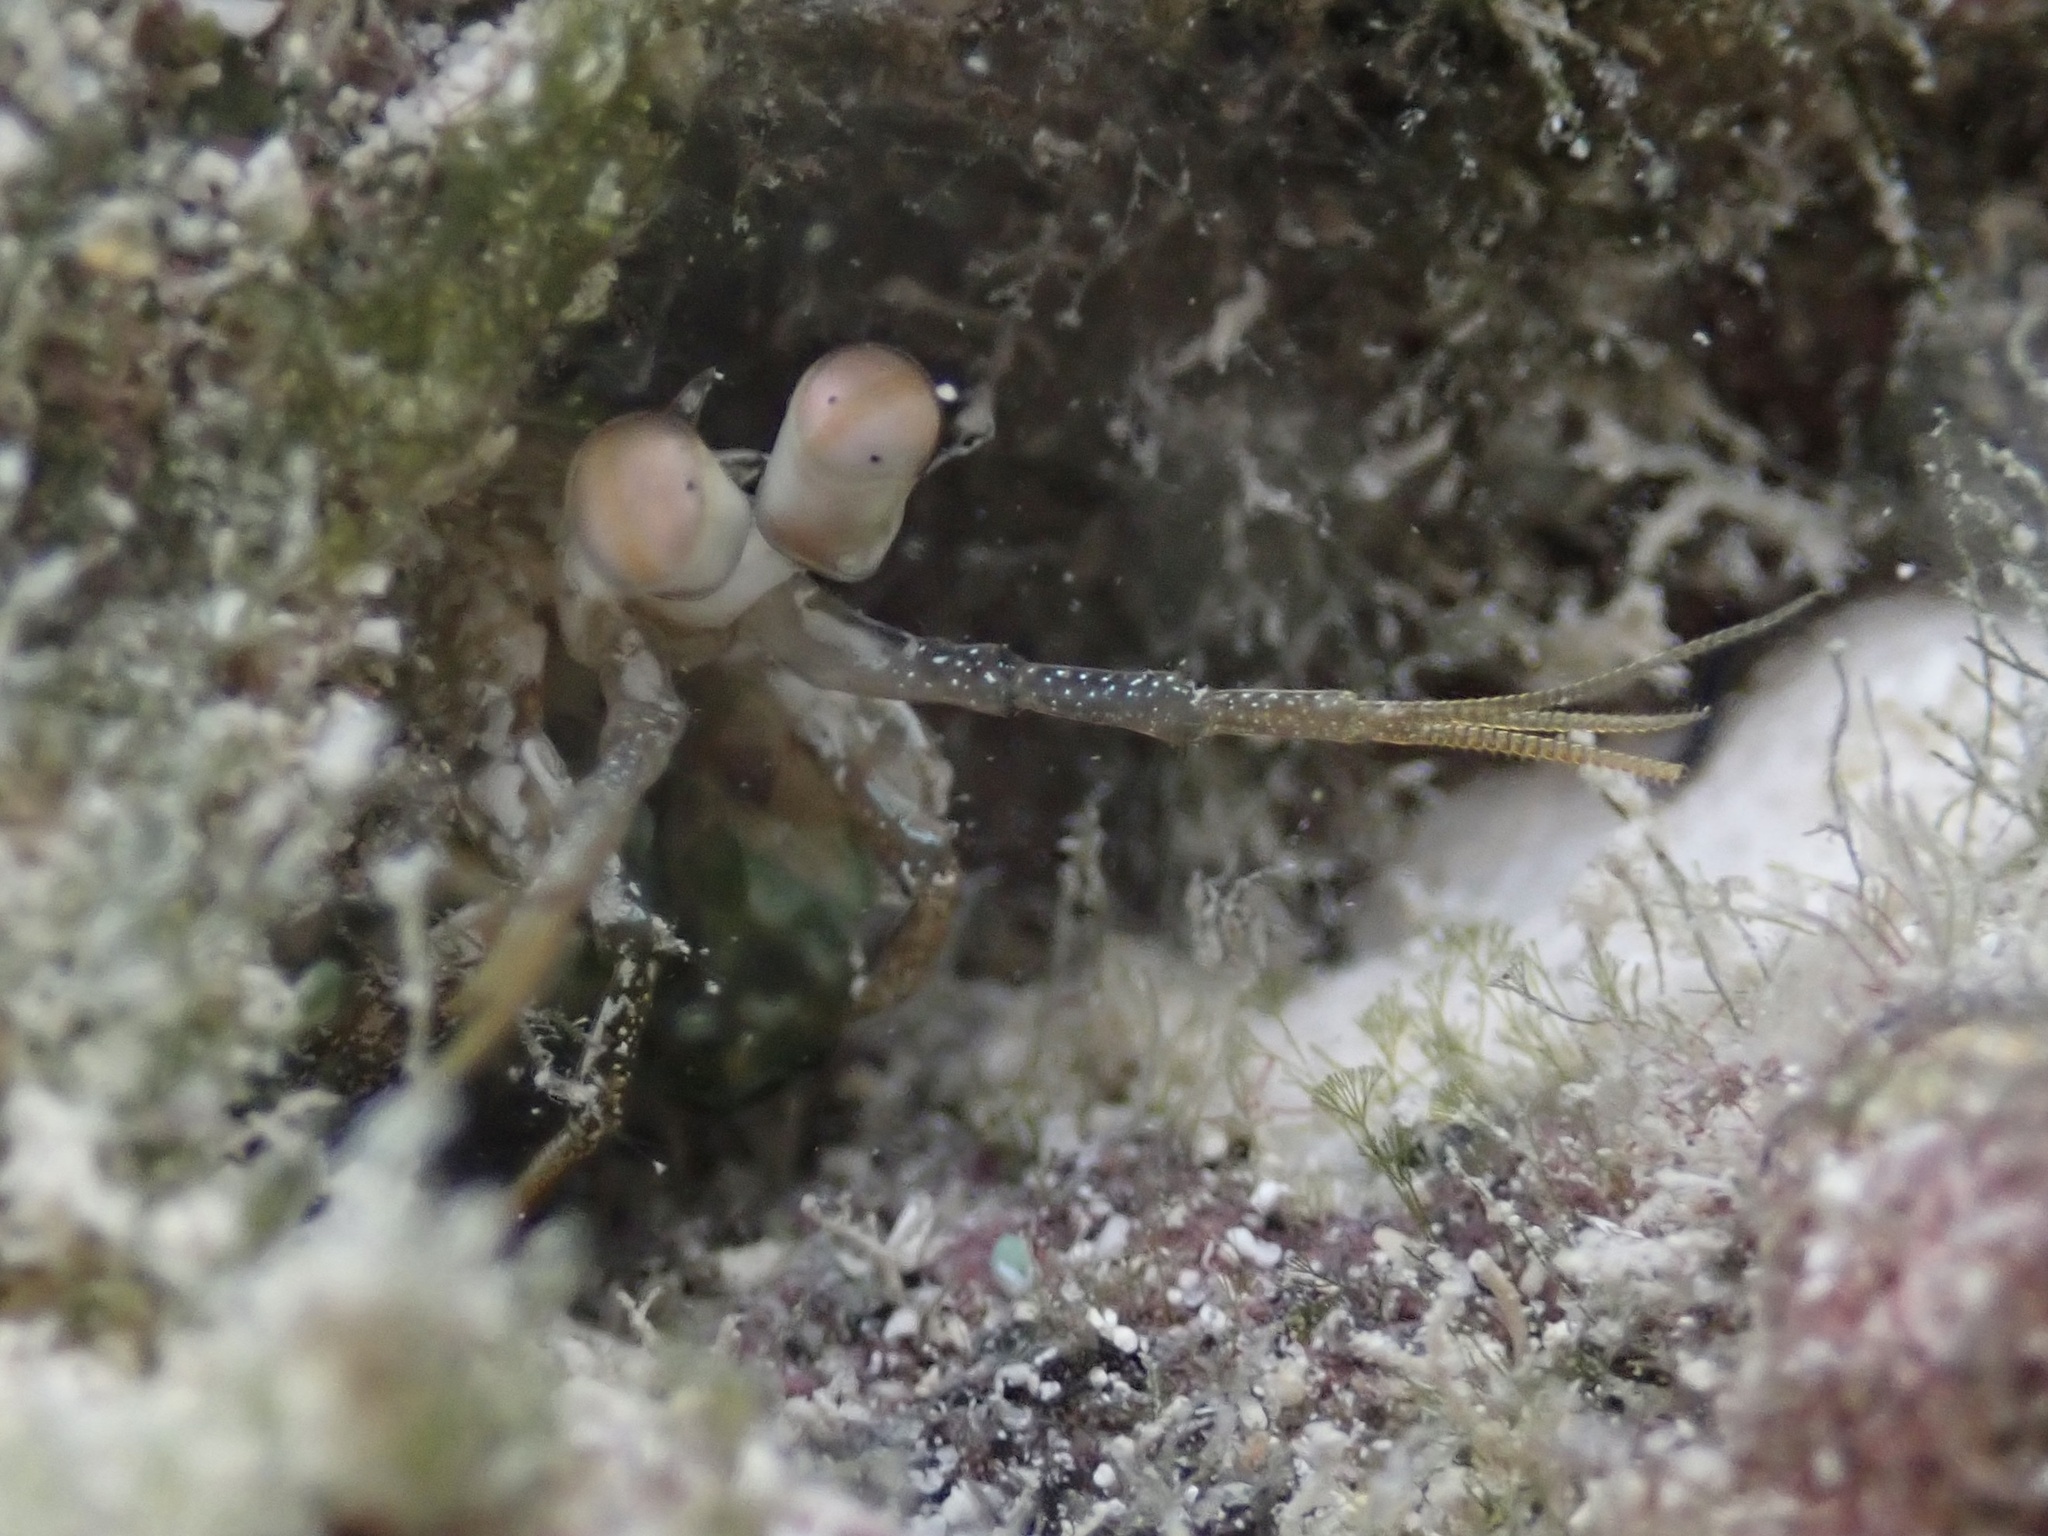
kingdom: Animalia
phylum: Arthropoda
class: Malacostraca
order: Stomatopoda
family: Gonodactylidae
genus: Neogonodactylus
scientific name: Neogonodactylus bredini
